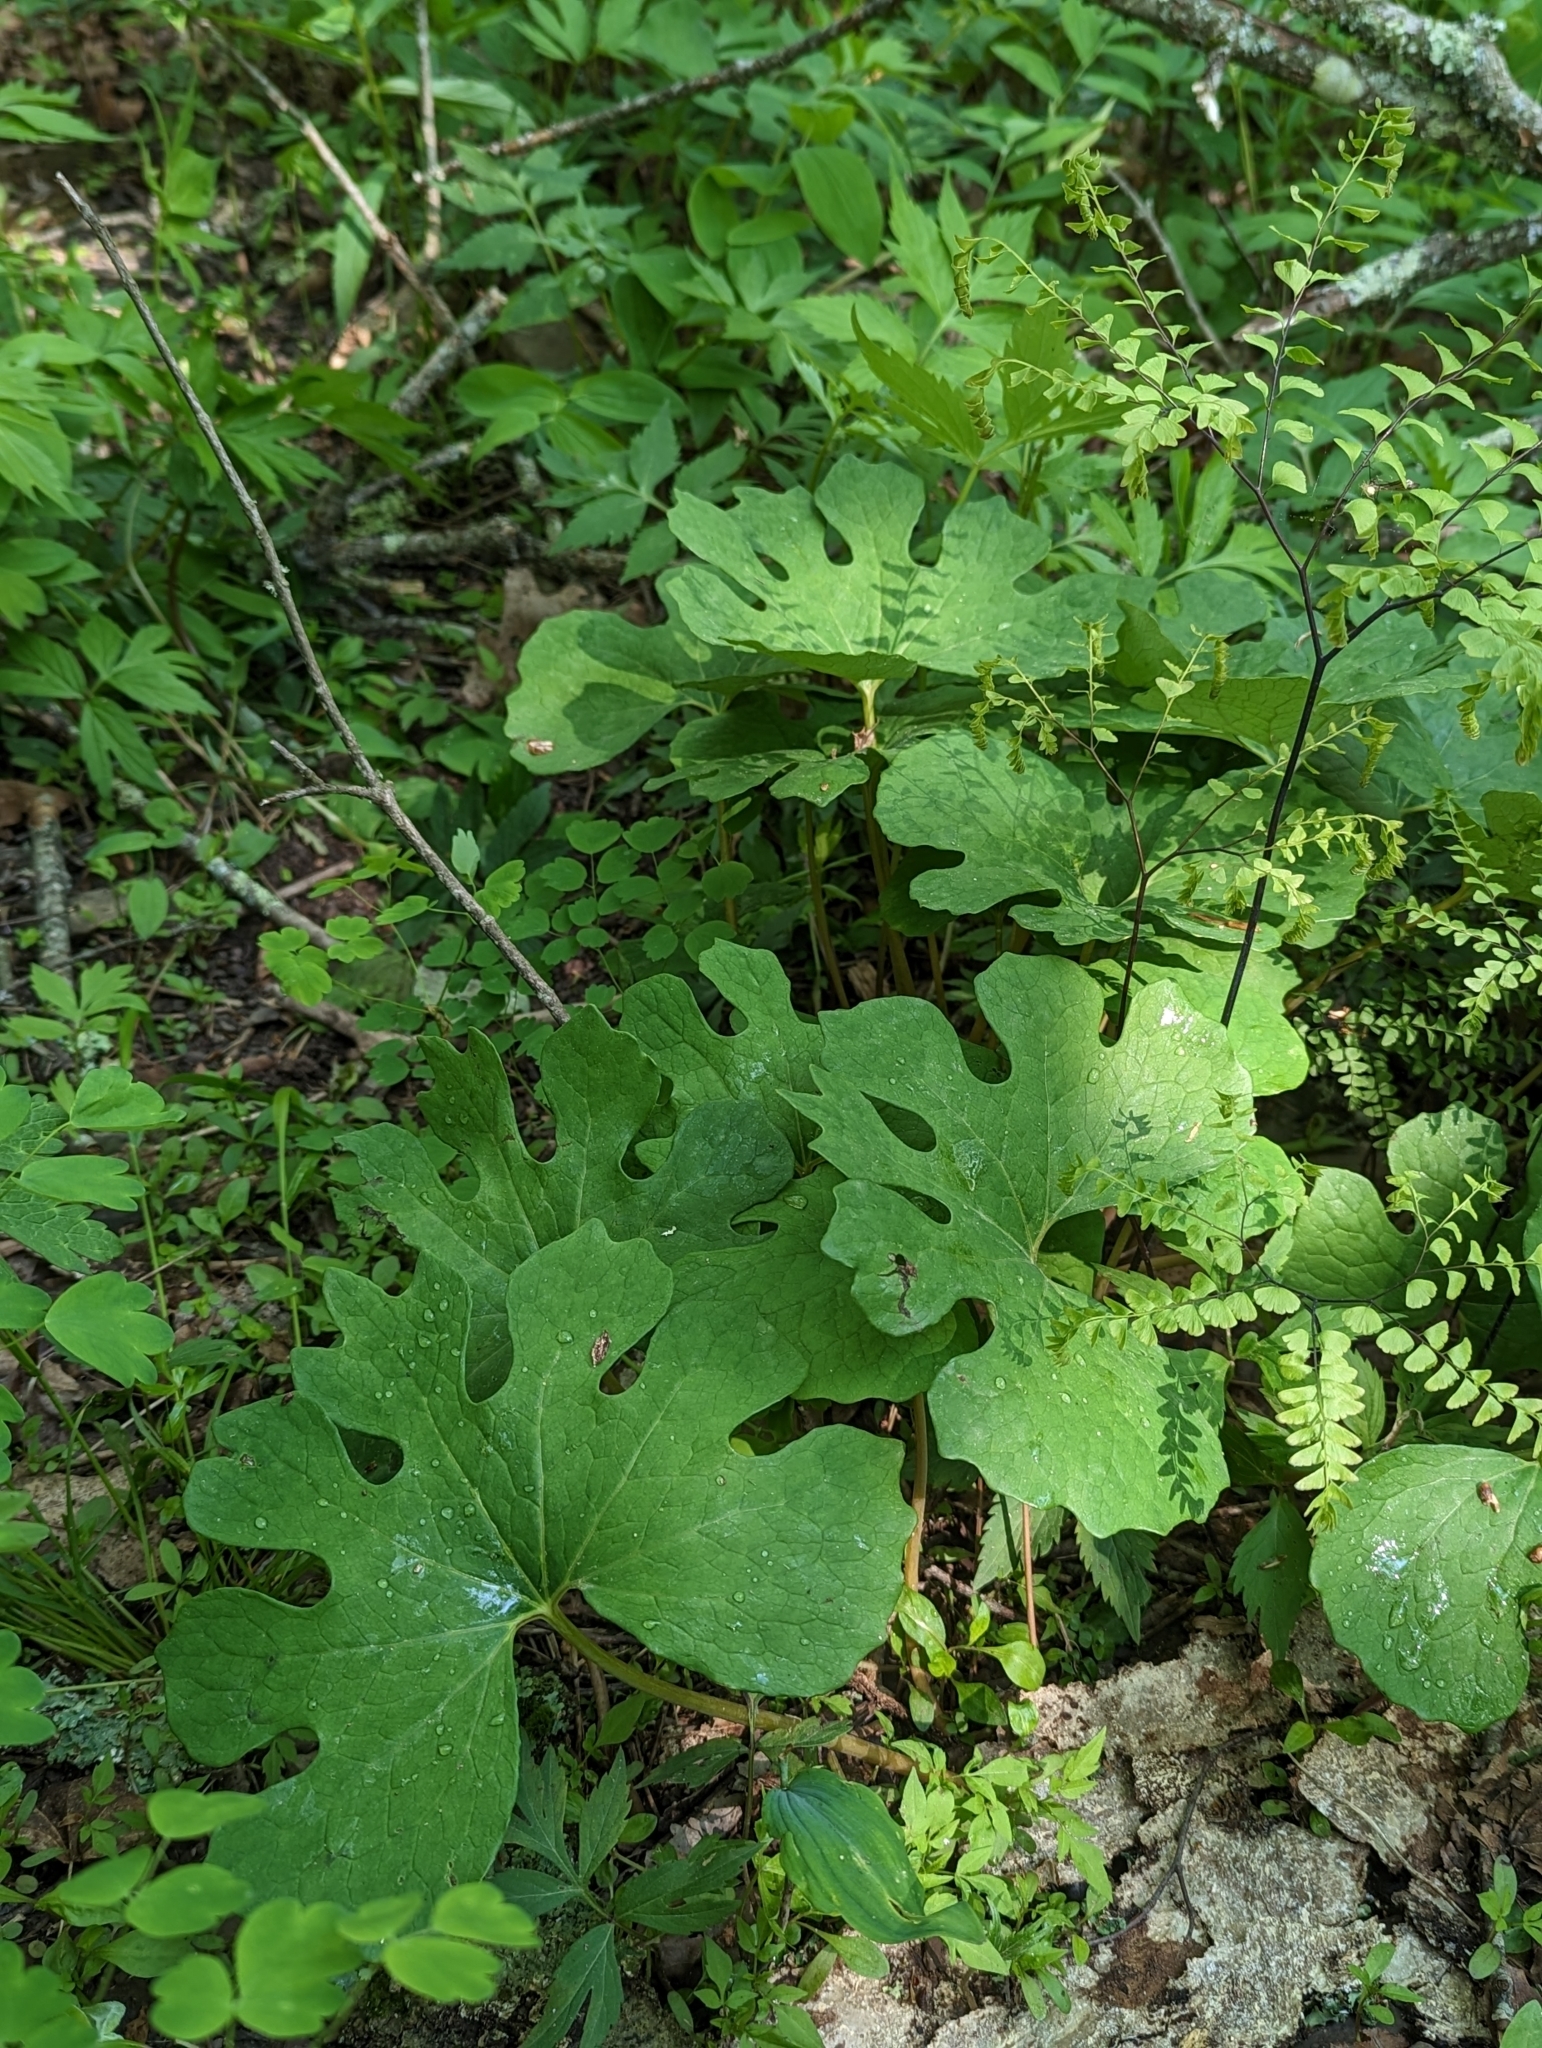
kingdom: Plantae
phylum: Tracheophyta
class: Magnoliopsida
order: Ranunculales
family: Papaveraceae
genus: Sanguinaria
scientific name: Sanguinaria canadensis
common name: Bloodroot
